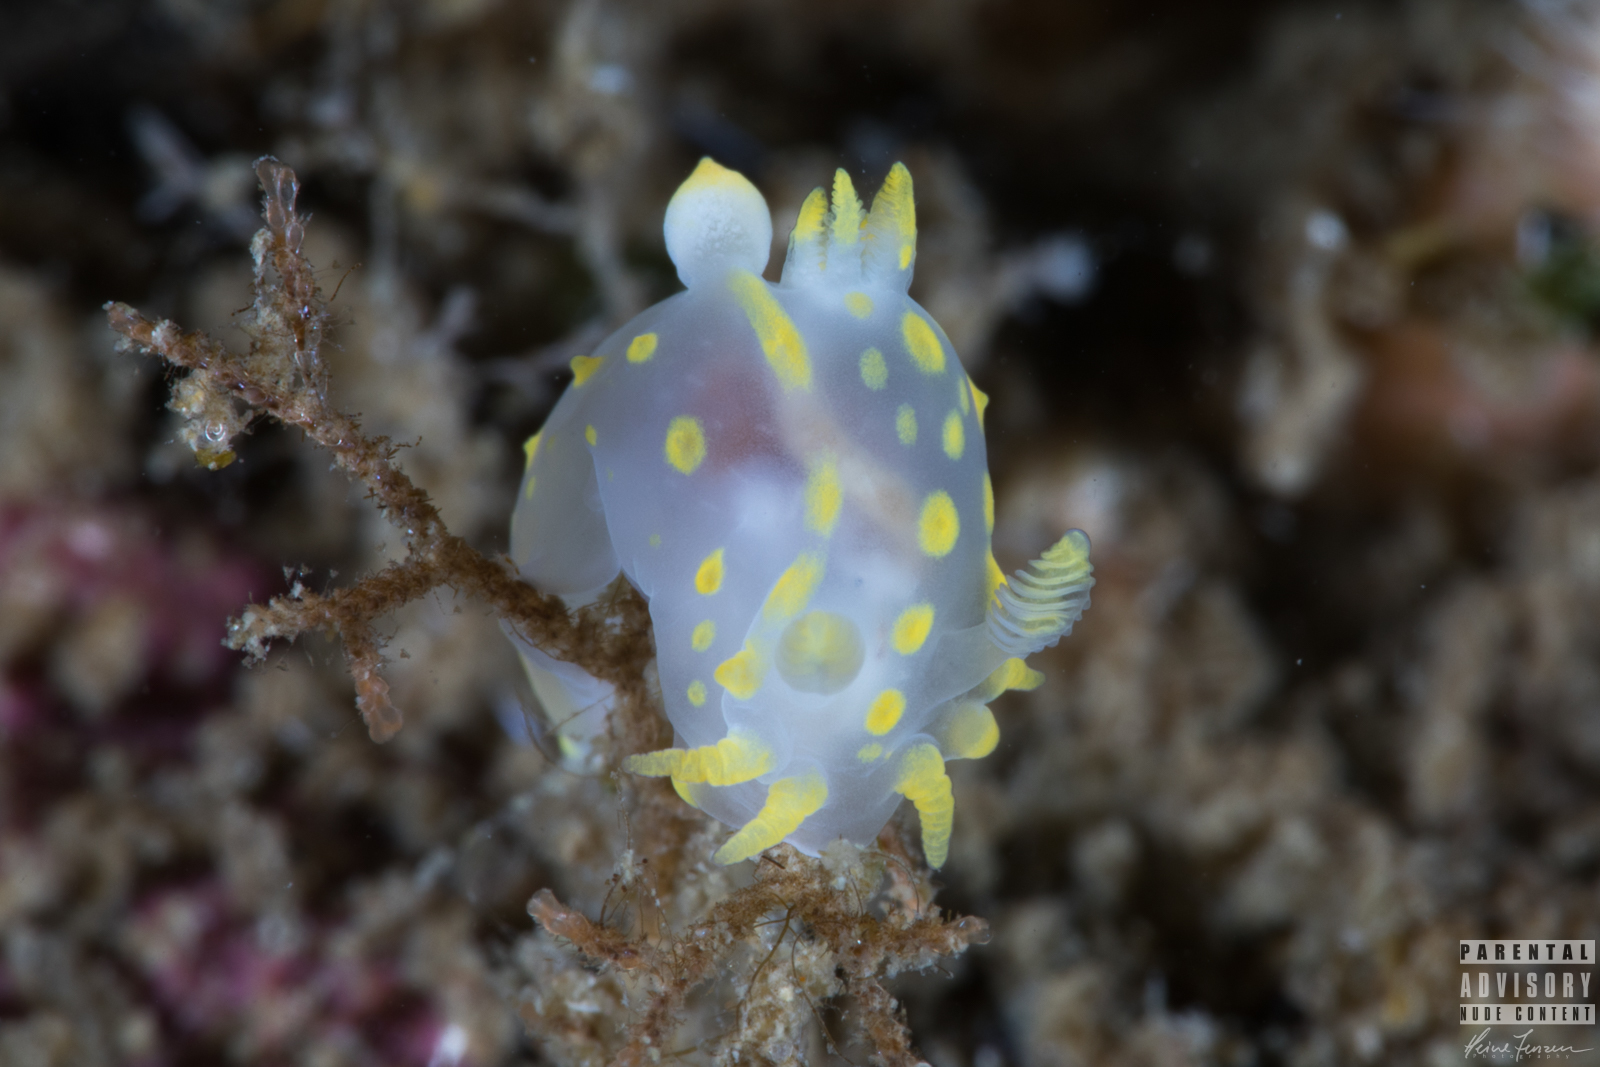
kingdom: Animalia
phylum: Mollusca
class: Gastropoda
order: Nudibranchia
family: Polyceridae
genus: Polycera
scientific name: Polycera quadrilineata
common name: Four-striped polycera
